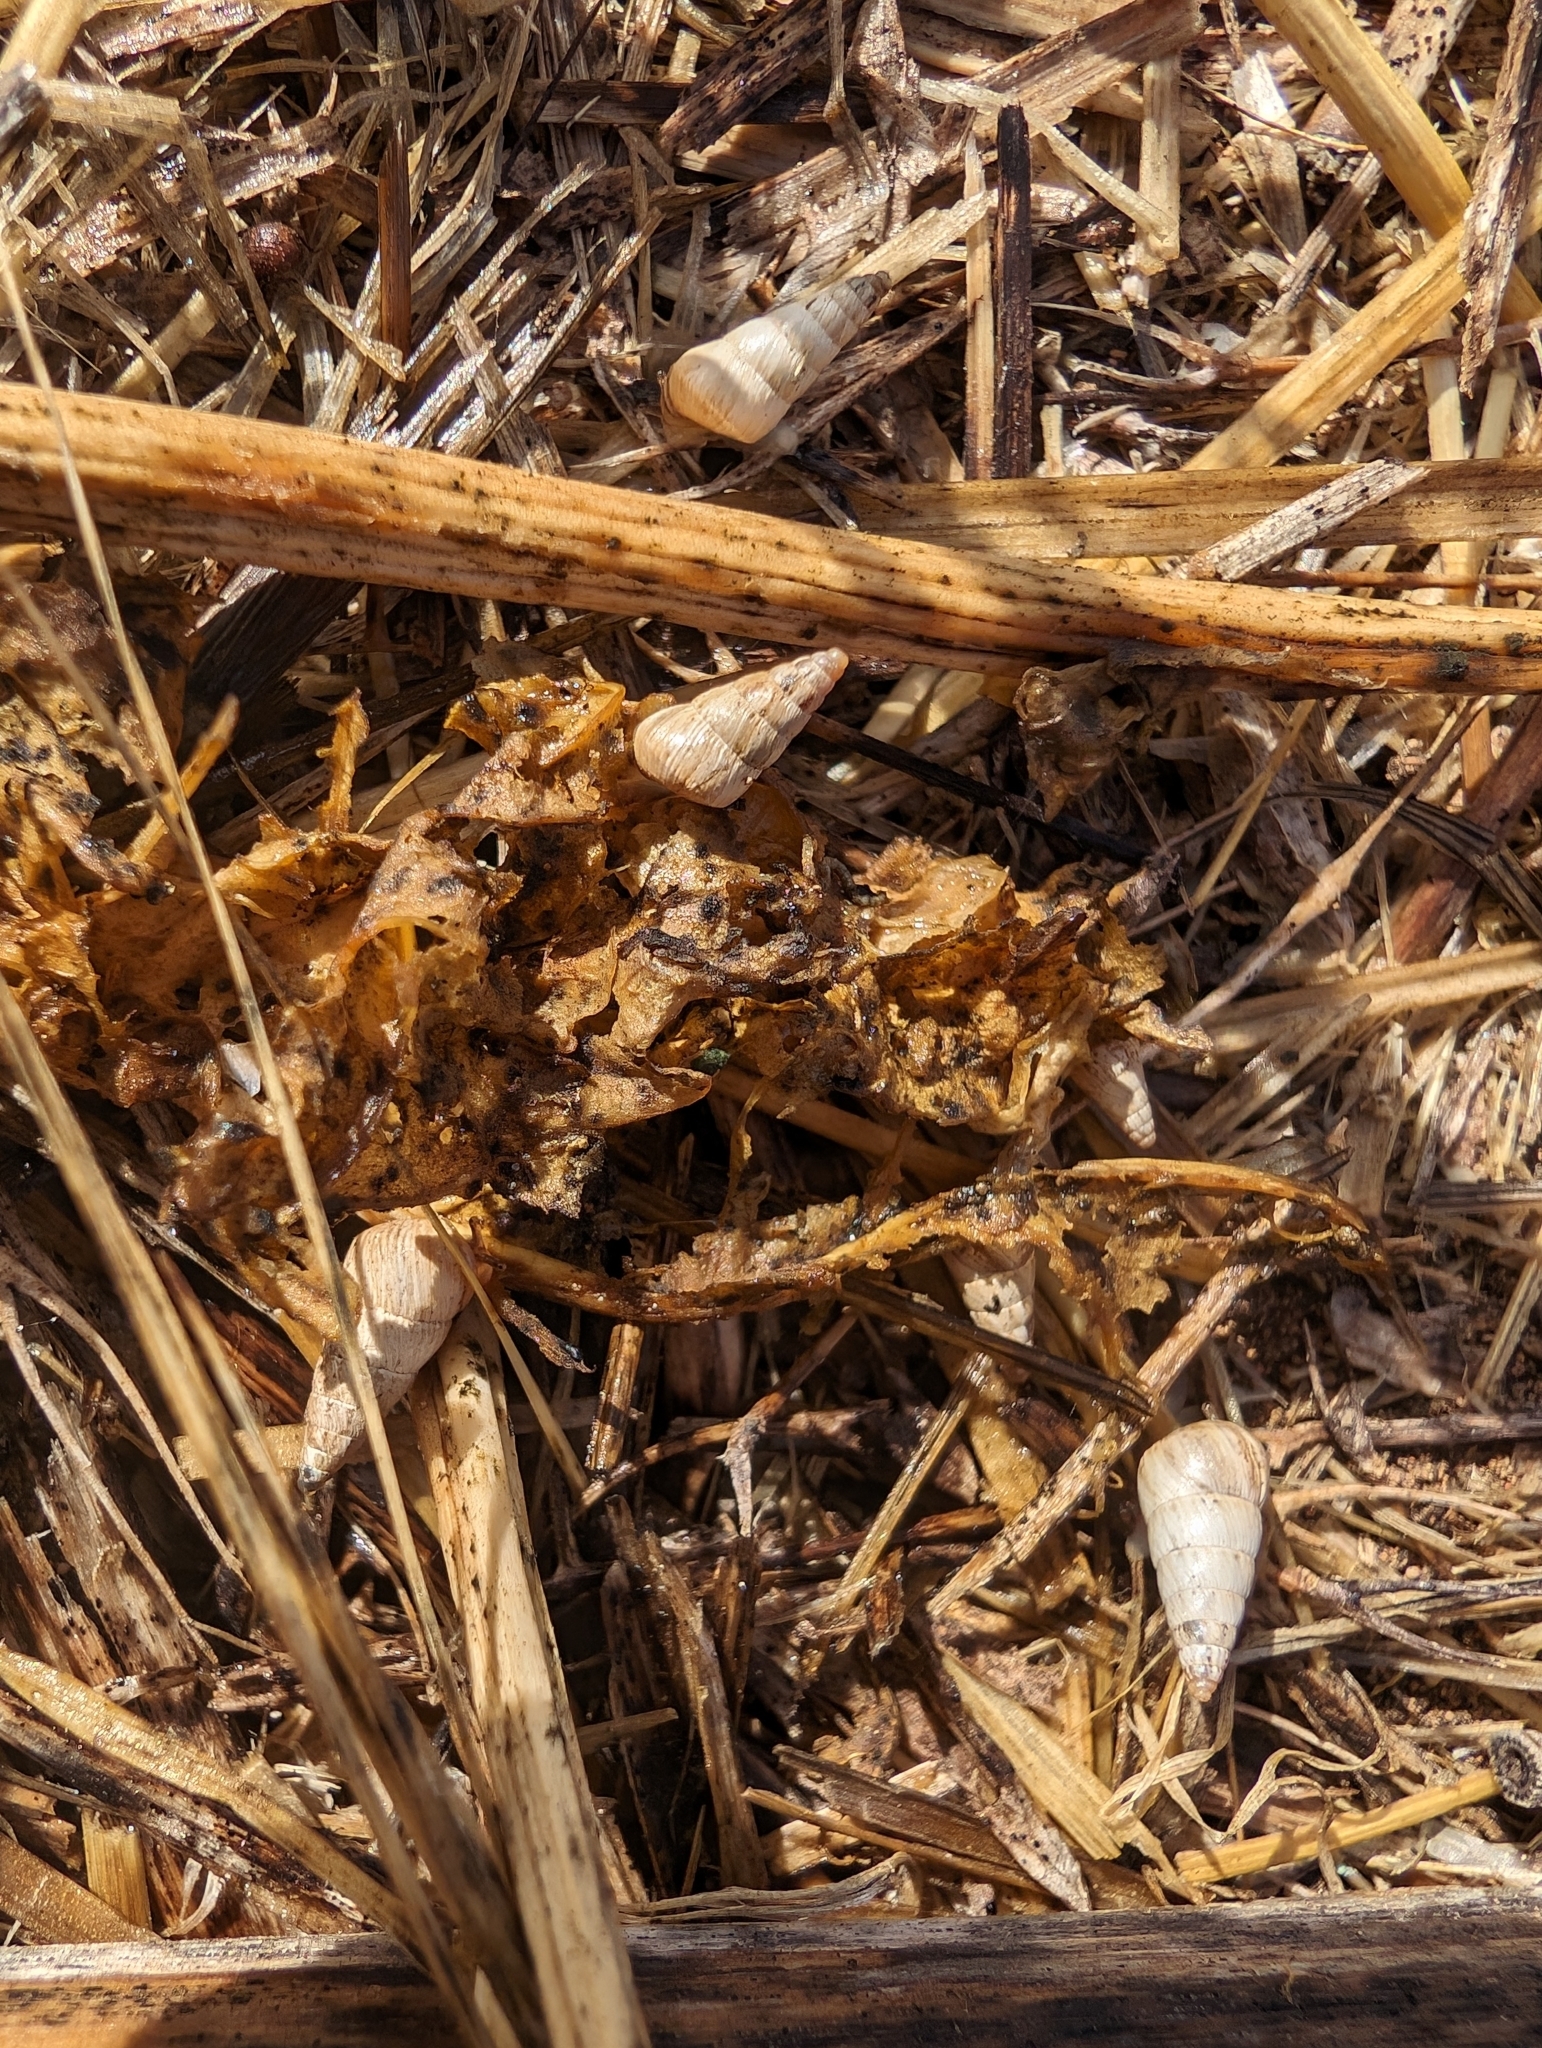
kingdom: Animalia
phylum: Mollusca
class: Gastropoda
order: Stylommatophora
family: Geomitridae
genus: Cochlicella
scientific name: Cochlicella acuta
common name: Pointed snail
